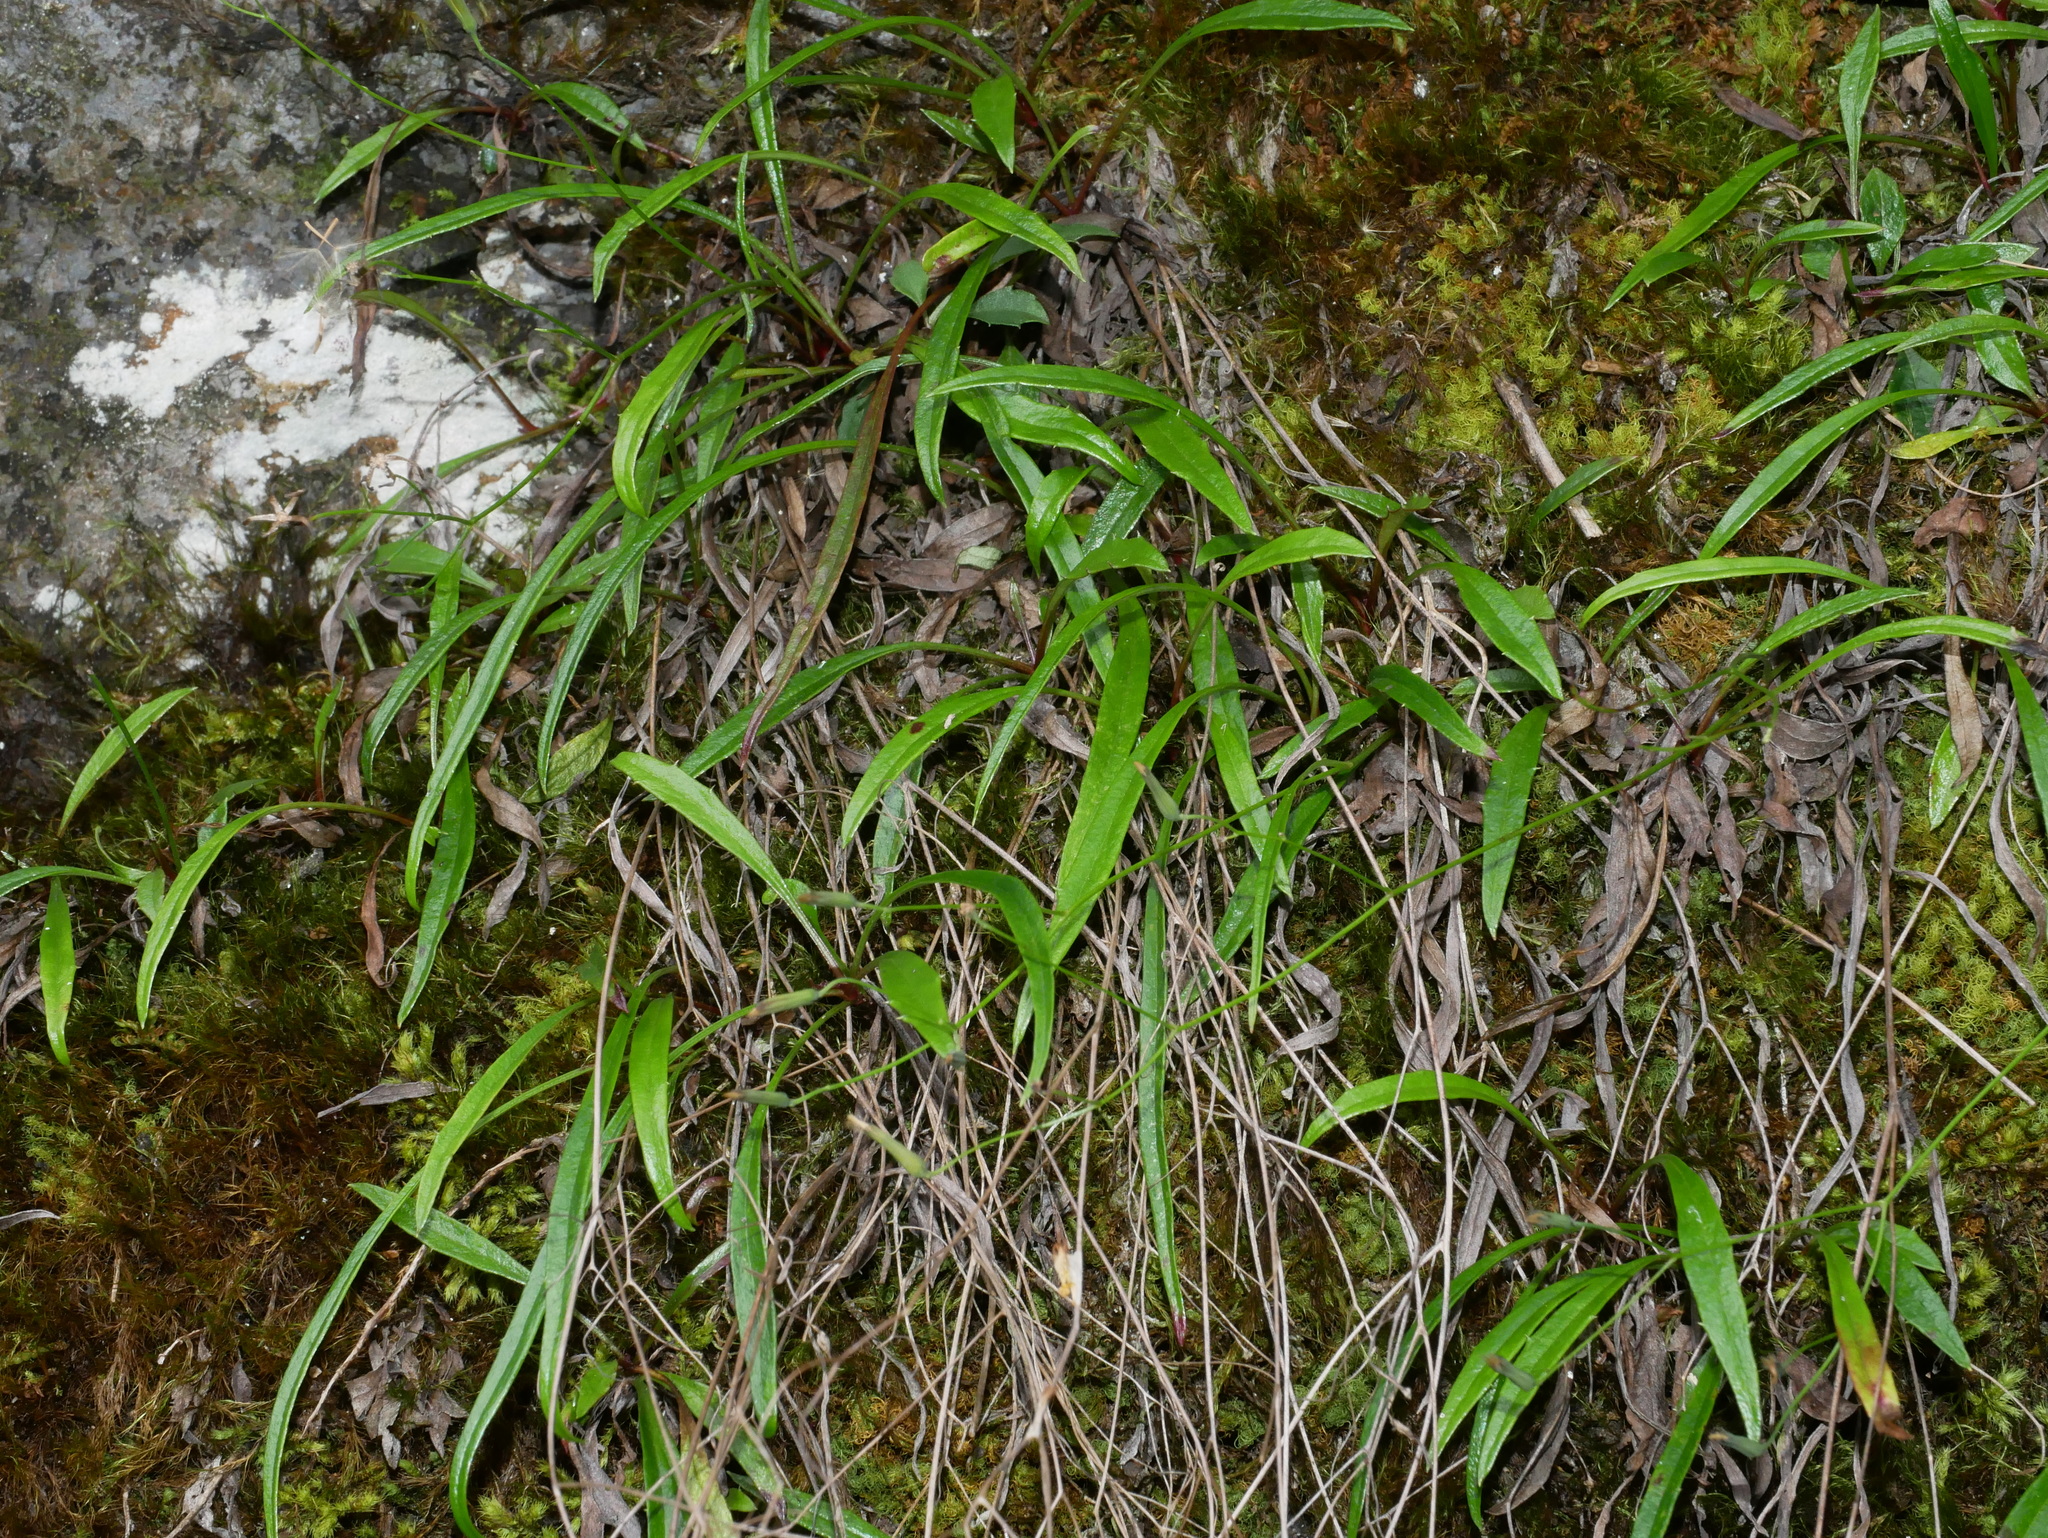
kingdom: Plantae
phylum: Tracheophyta
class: Magnoliopsida
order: Asterales
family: Asteraceae
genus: Ixeridium
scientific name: Ixeridium transnokoense
